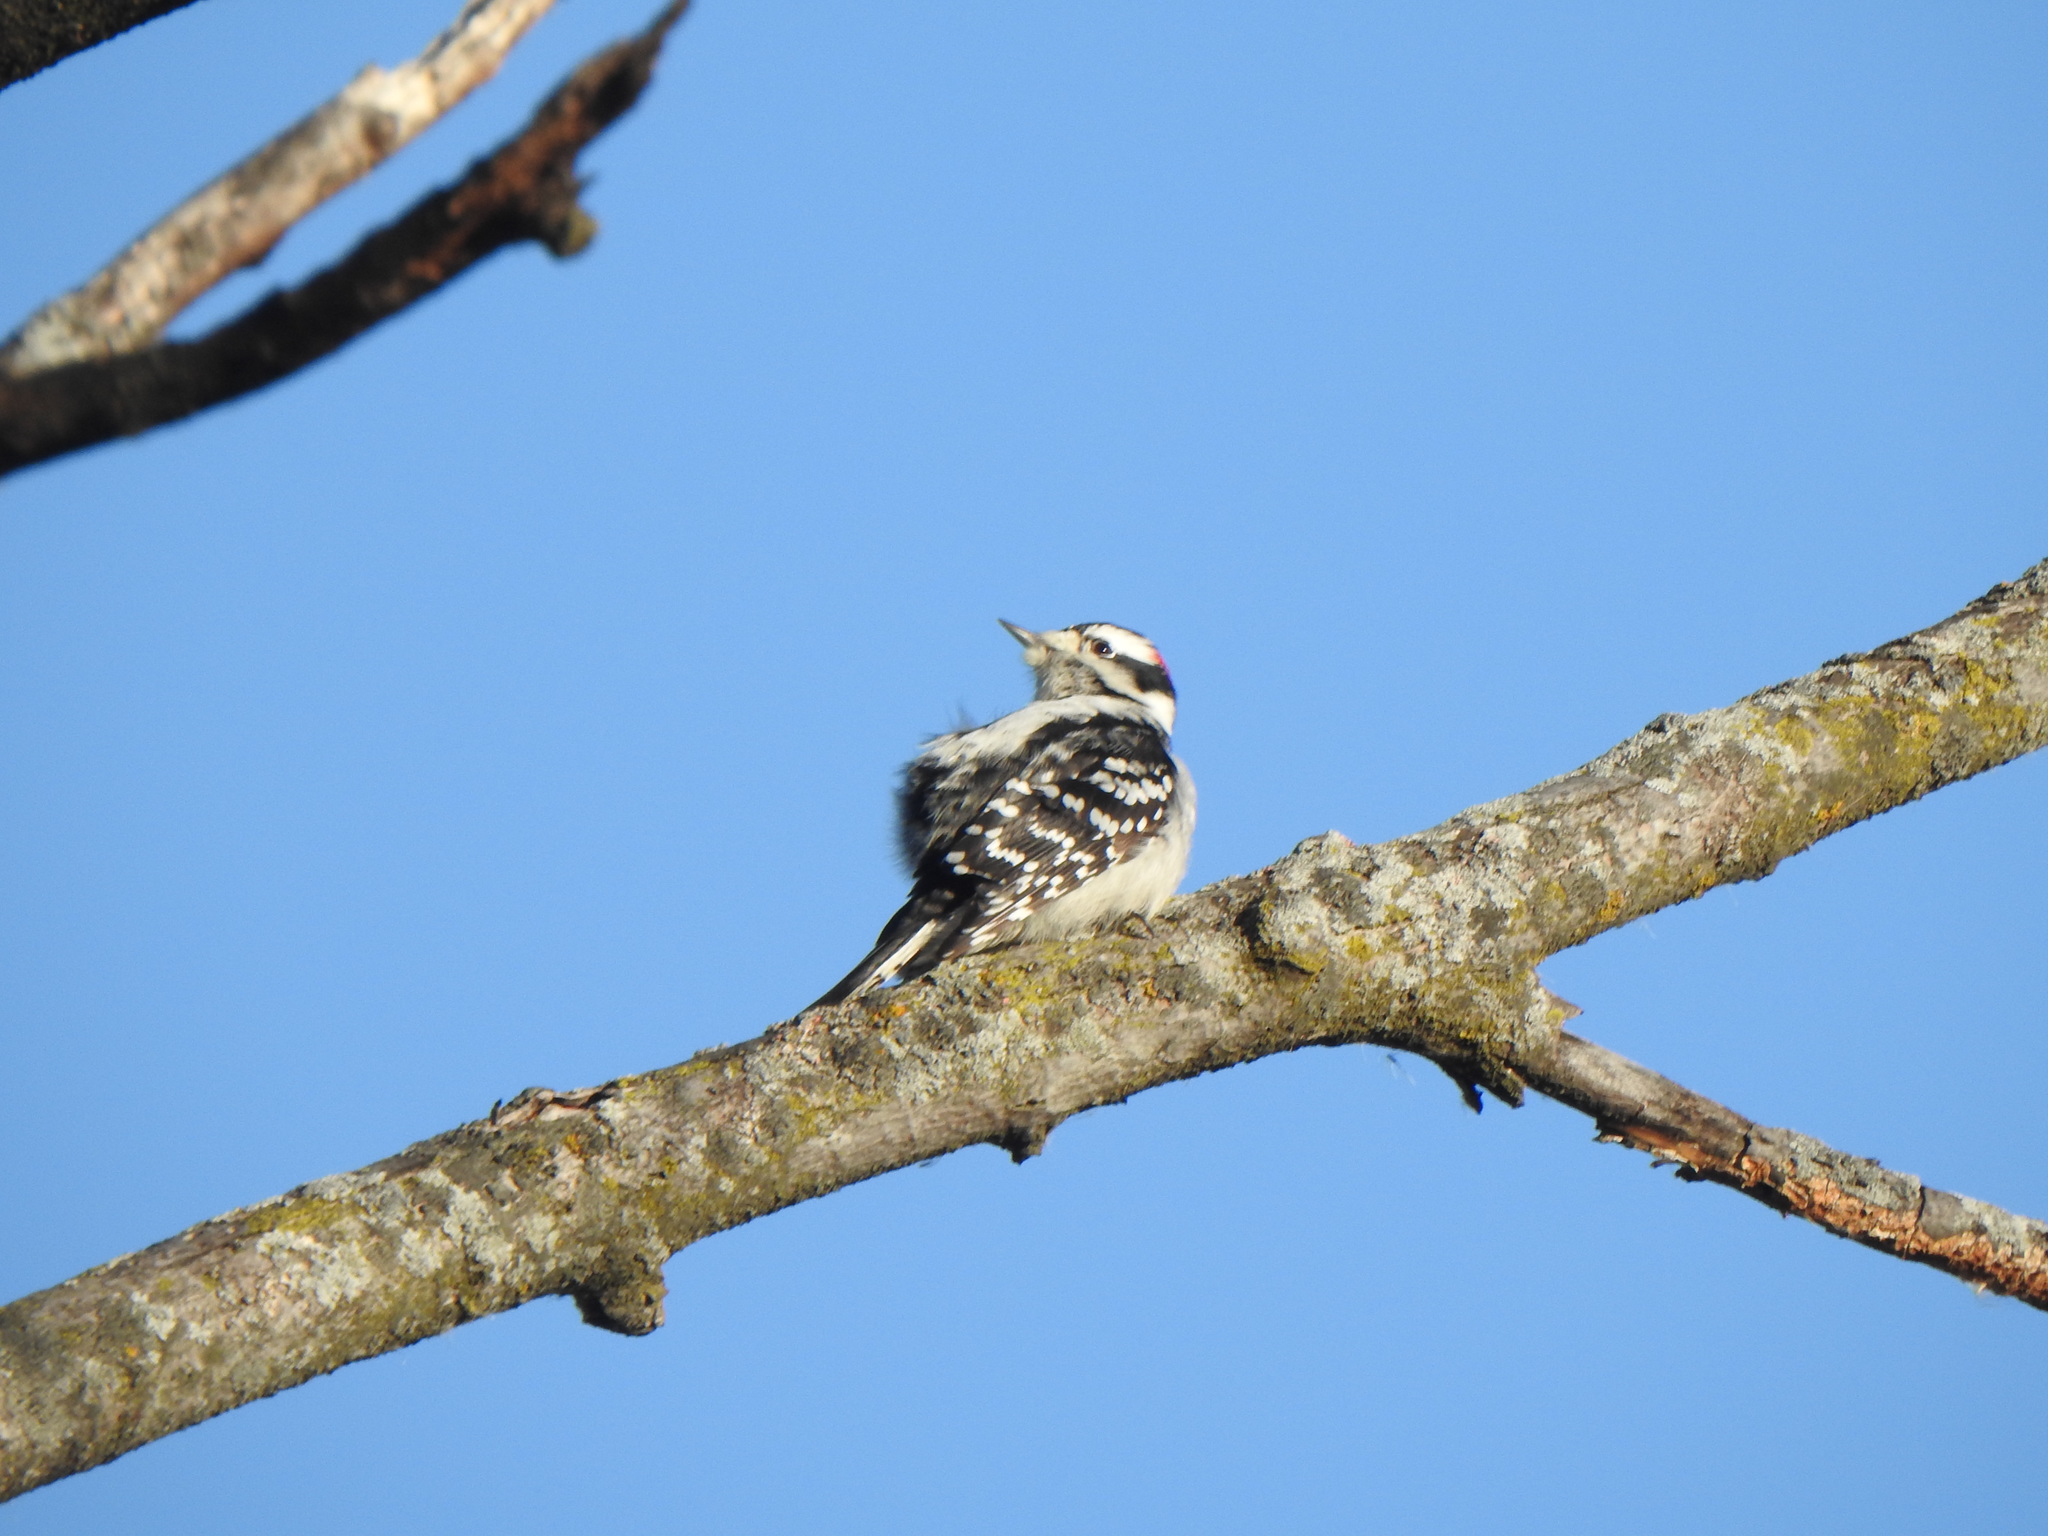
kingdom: Animalia
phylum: Chordata
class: Aves
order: Piciformes
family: Picidae
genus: Dryobates
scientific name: Dryobates pubescens
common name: Downy woodpecker
